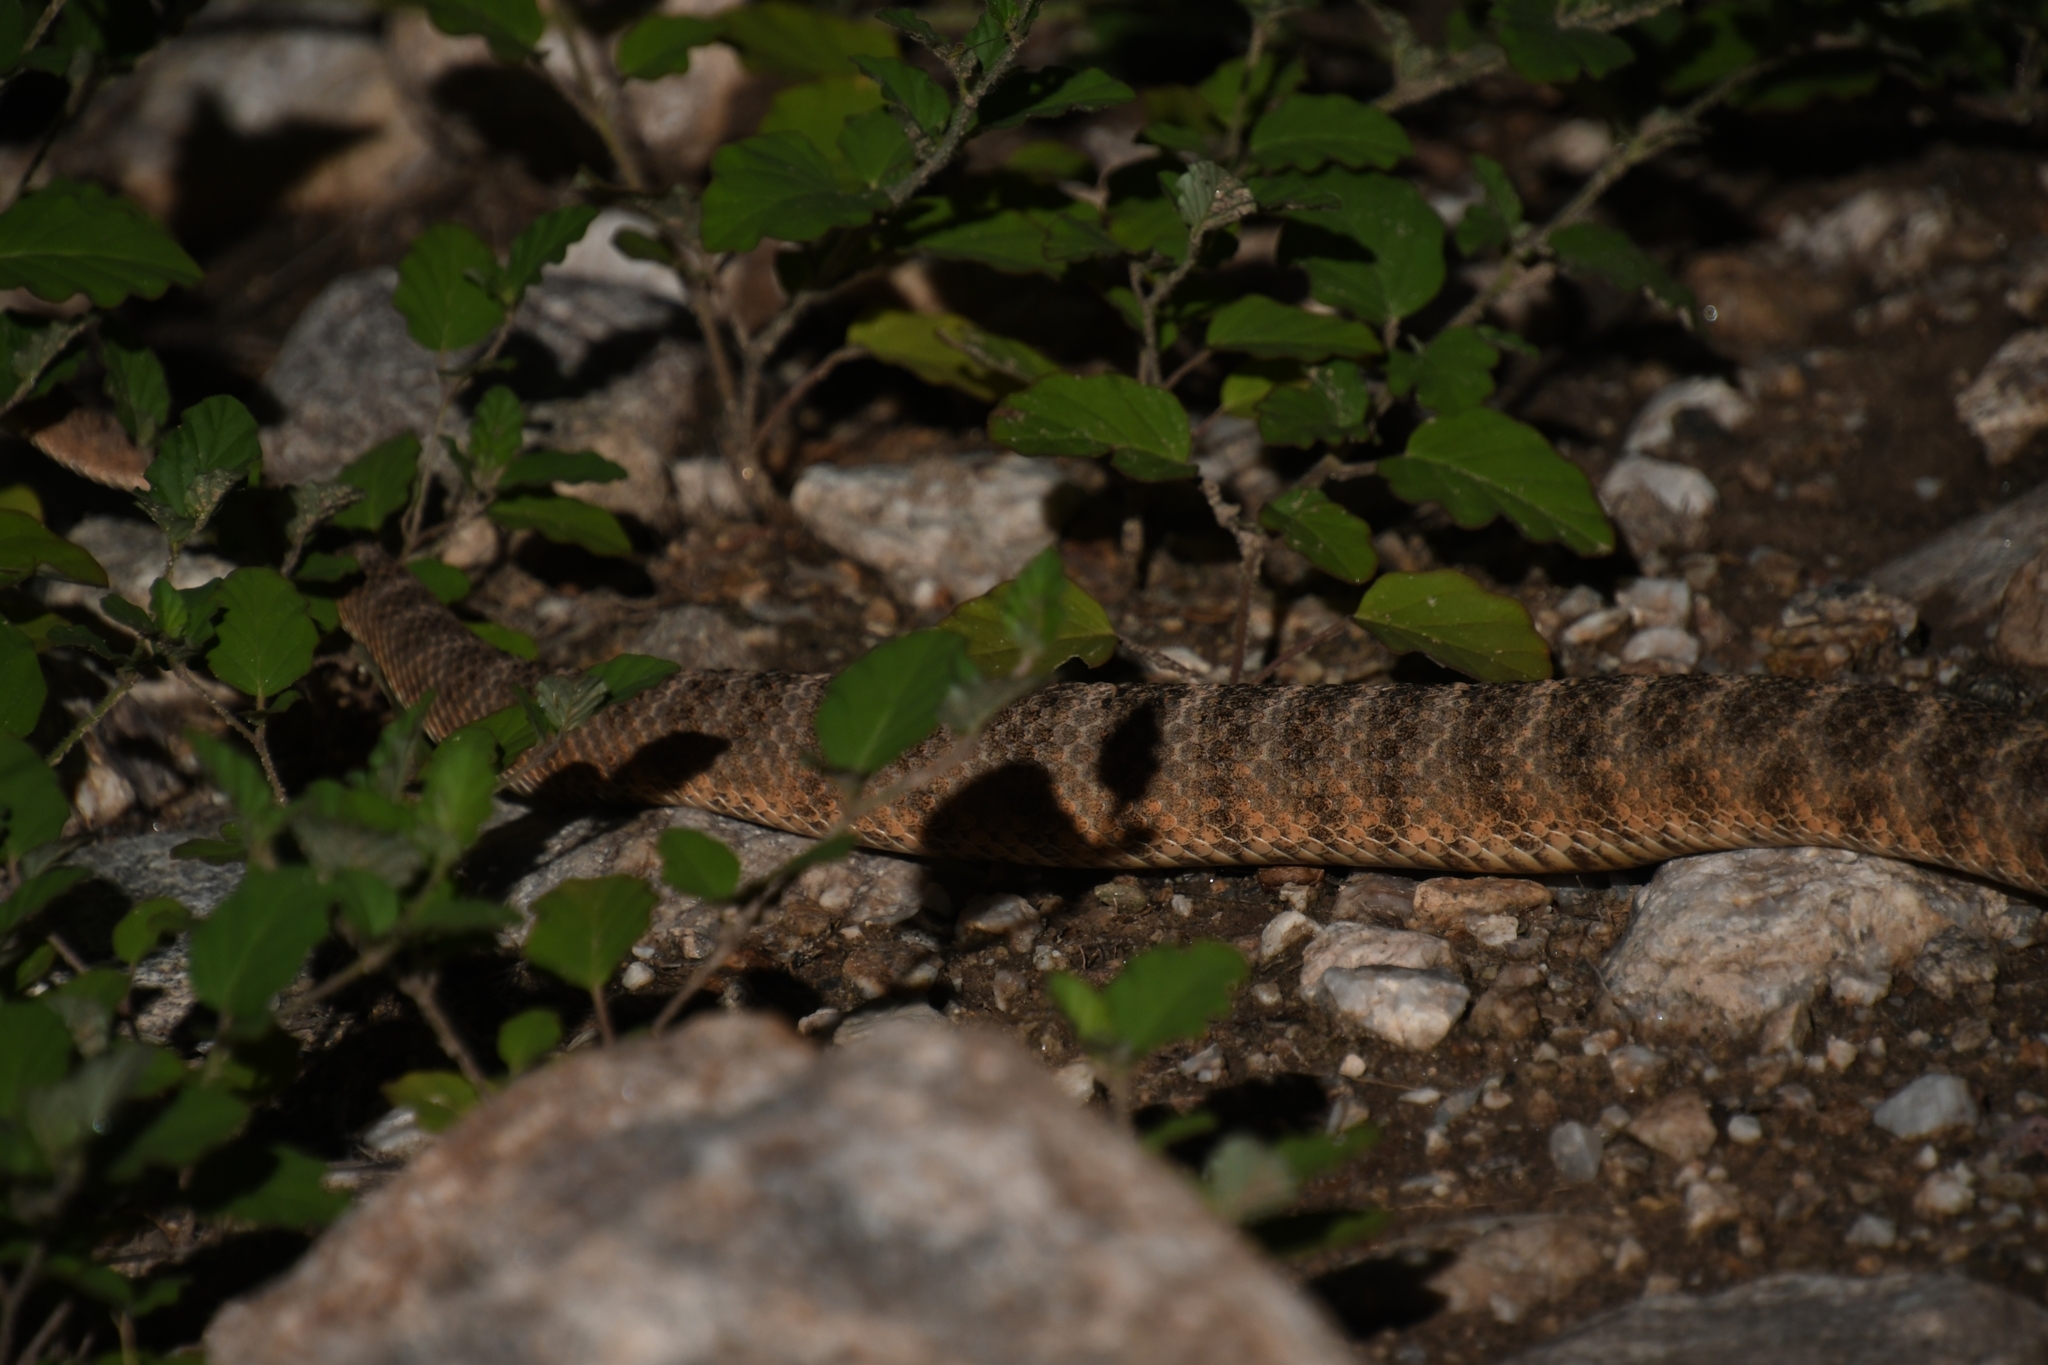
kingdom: Animalia
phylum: Chordata
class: Squamata
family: Viperidae
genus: Crotalus
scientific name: Crotalus tigris
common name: Tiger rattlesnake
